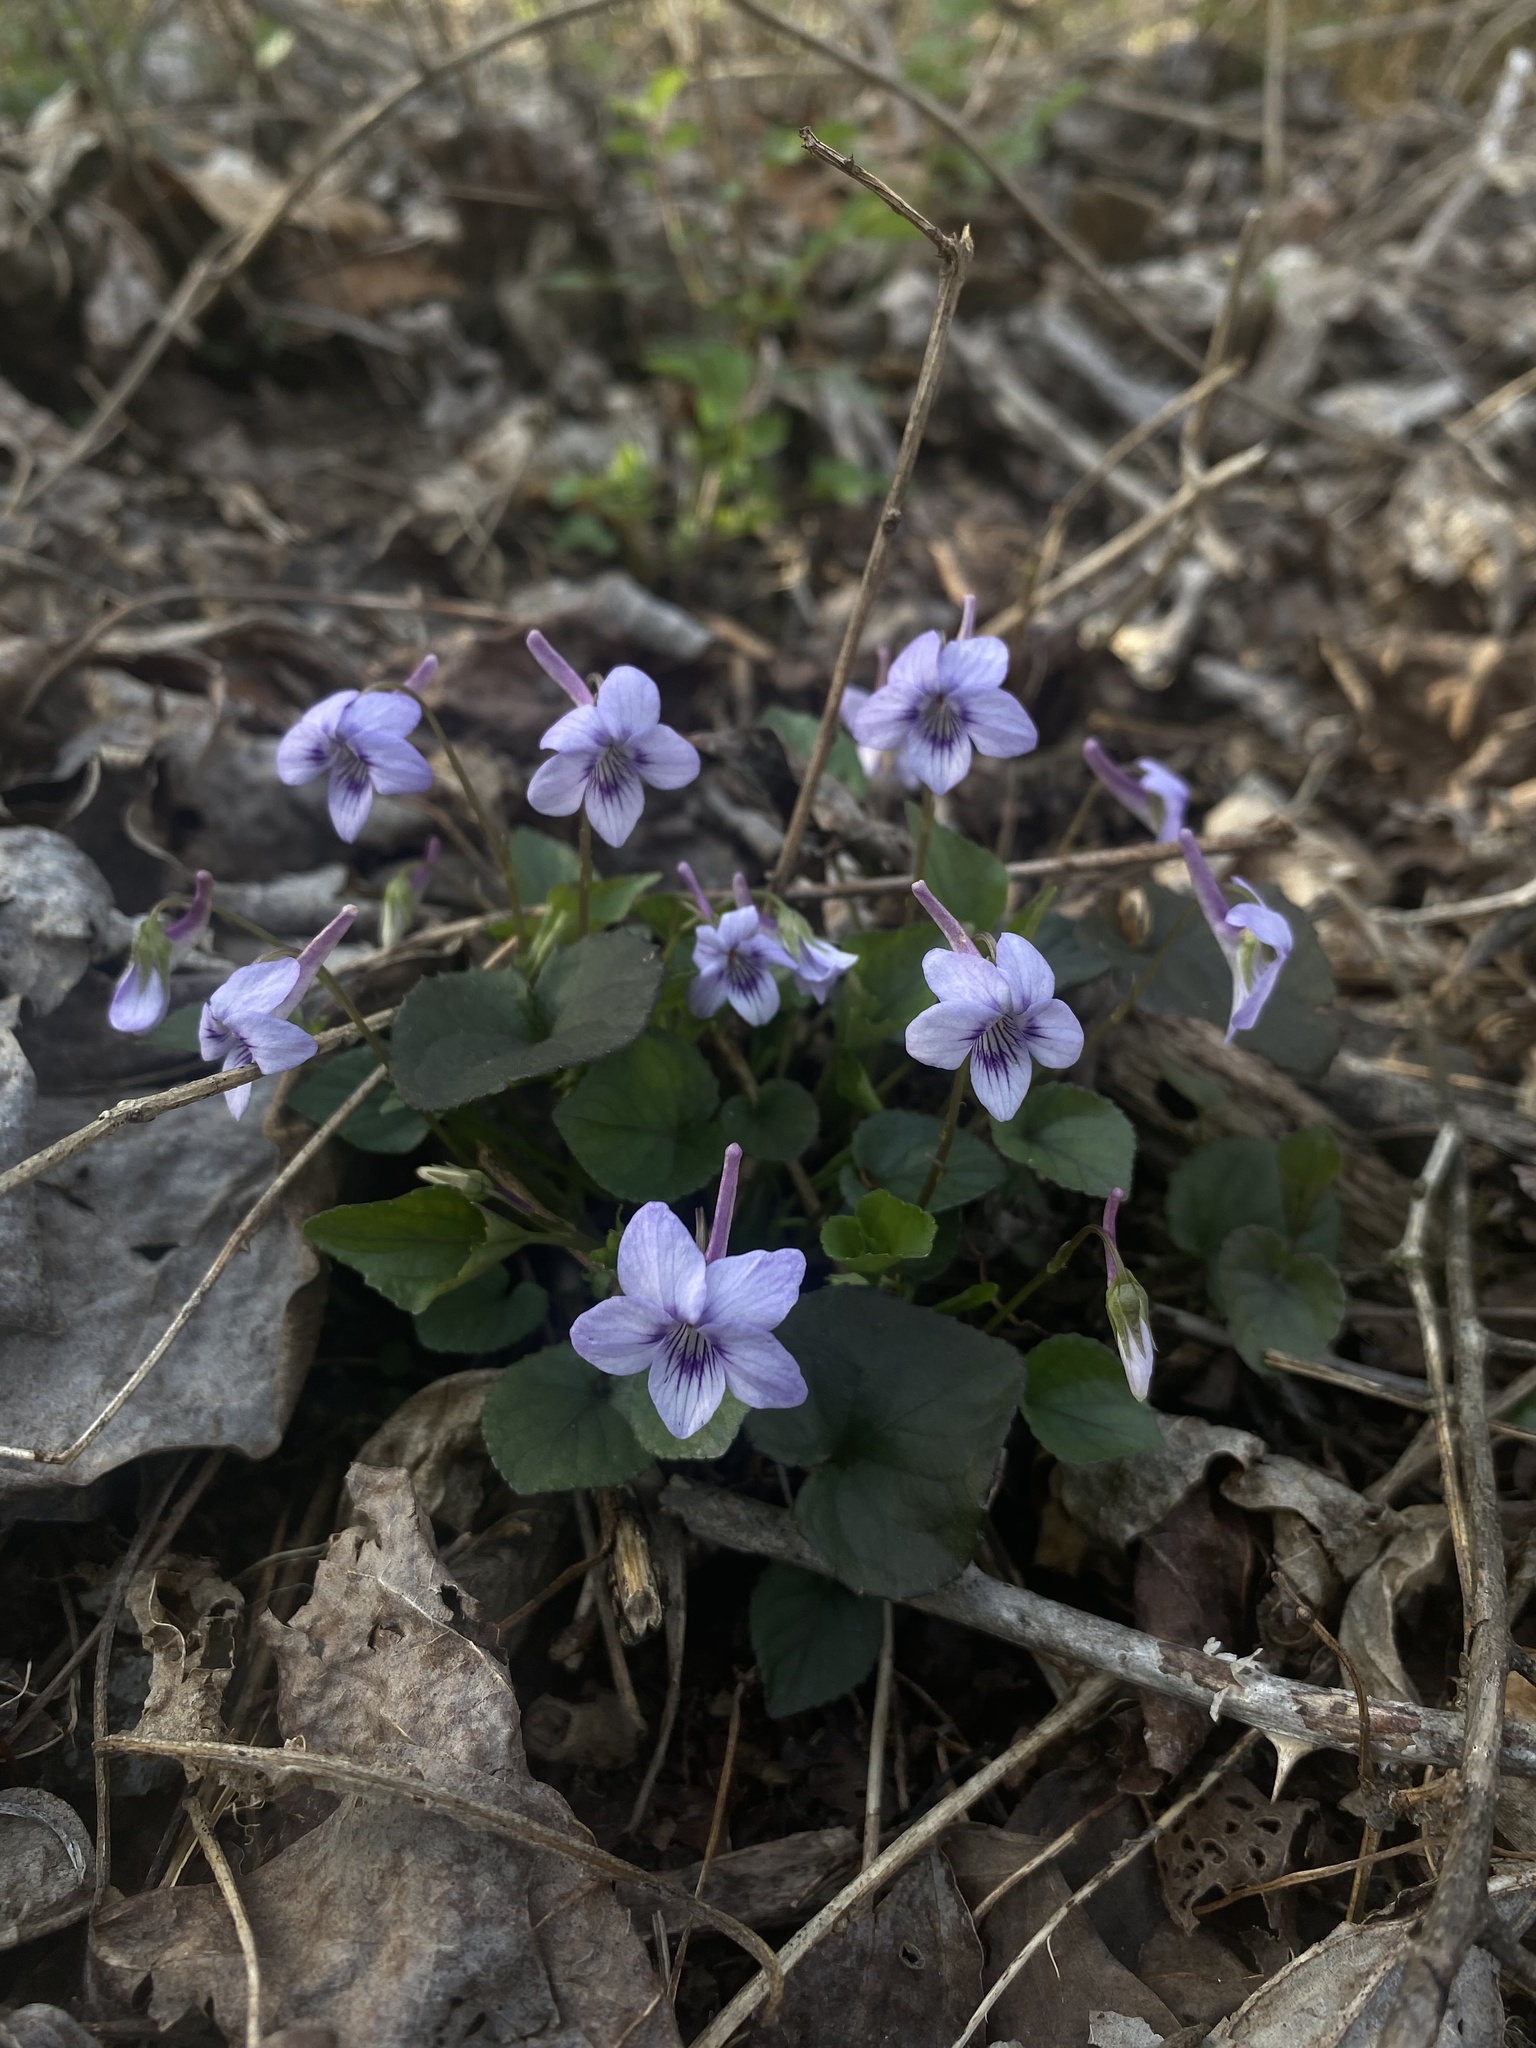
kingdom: Plantae
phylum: Tracheophyta
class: Magnoliopsida
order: Malpighiales
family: Violaceae
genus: Viola
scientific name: Viola rostrata
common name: Long-spur violet
